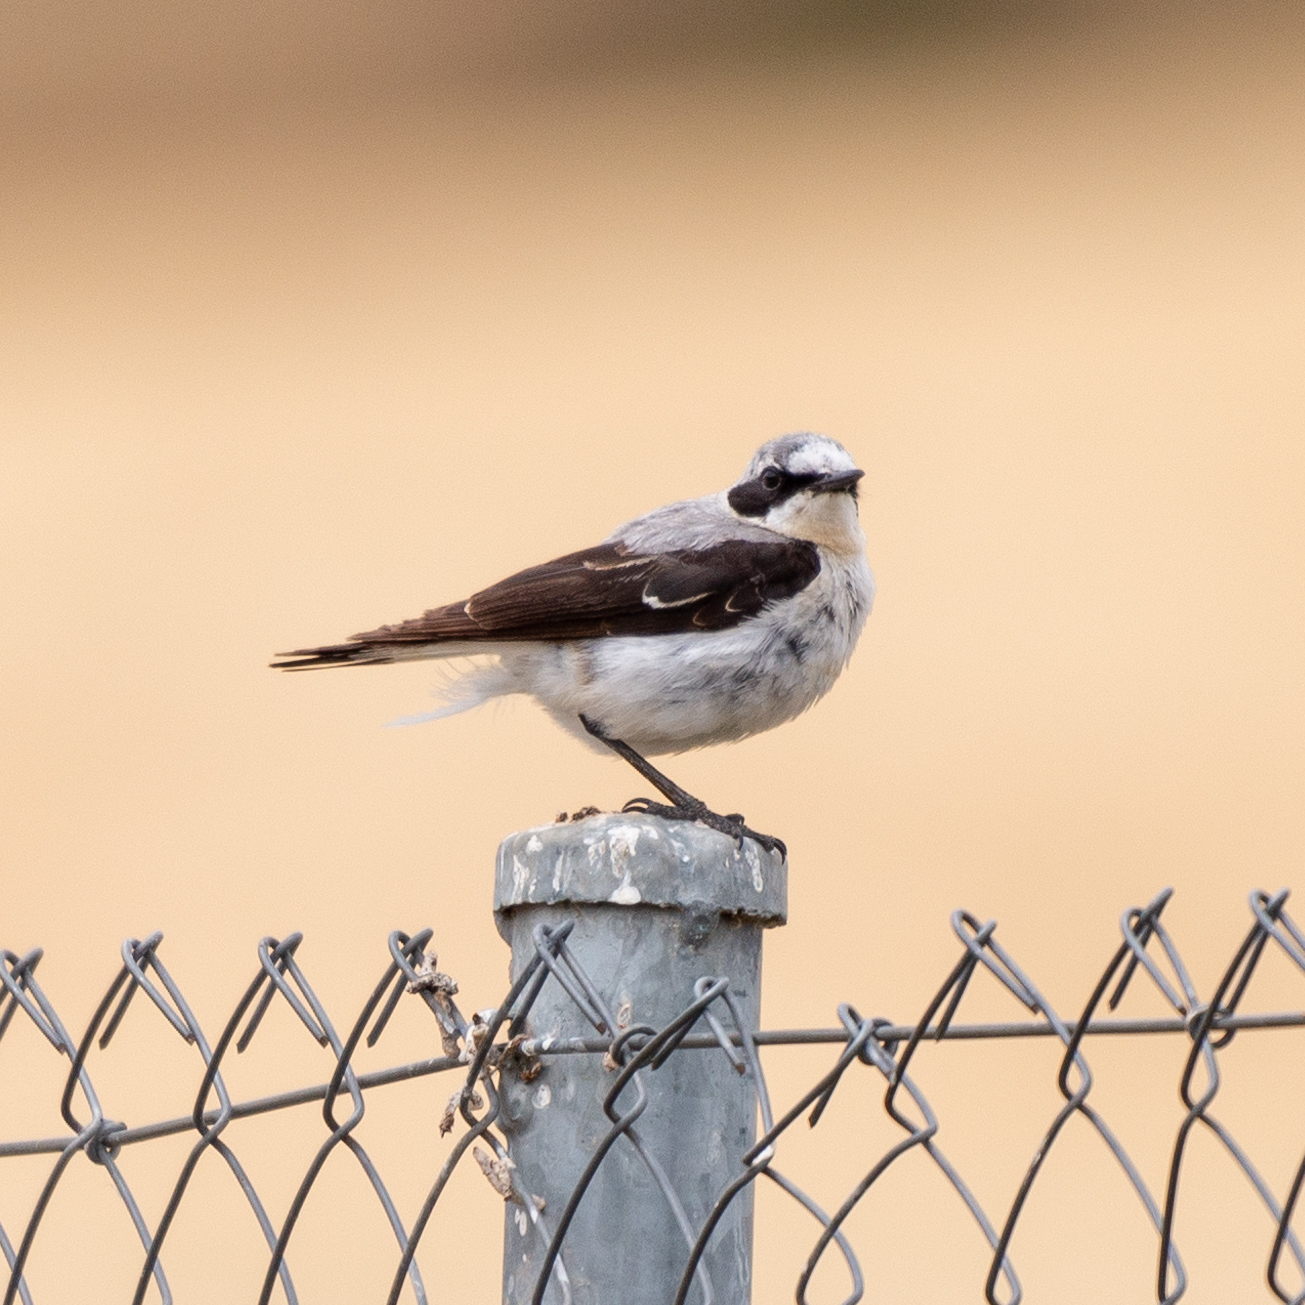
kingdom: Animalia
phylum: Chordata
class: Aves
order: Passeriformes
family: Muscicapidae
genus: Oenanthe
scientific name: Oenanthe oenanthe
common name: Northern wheatear
